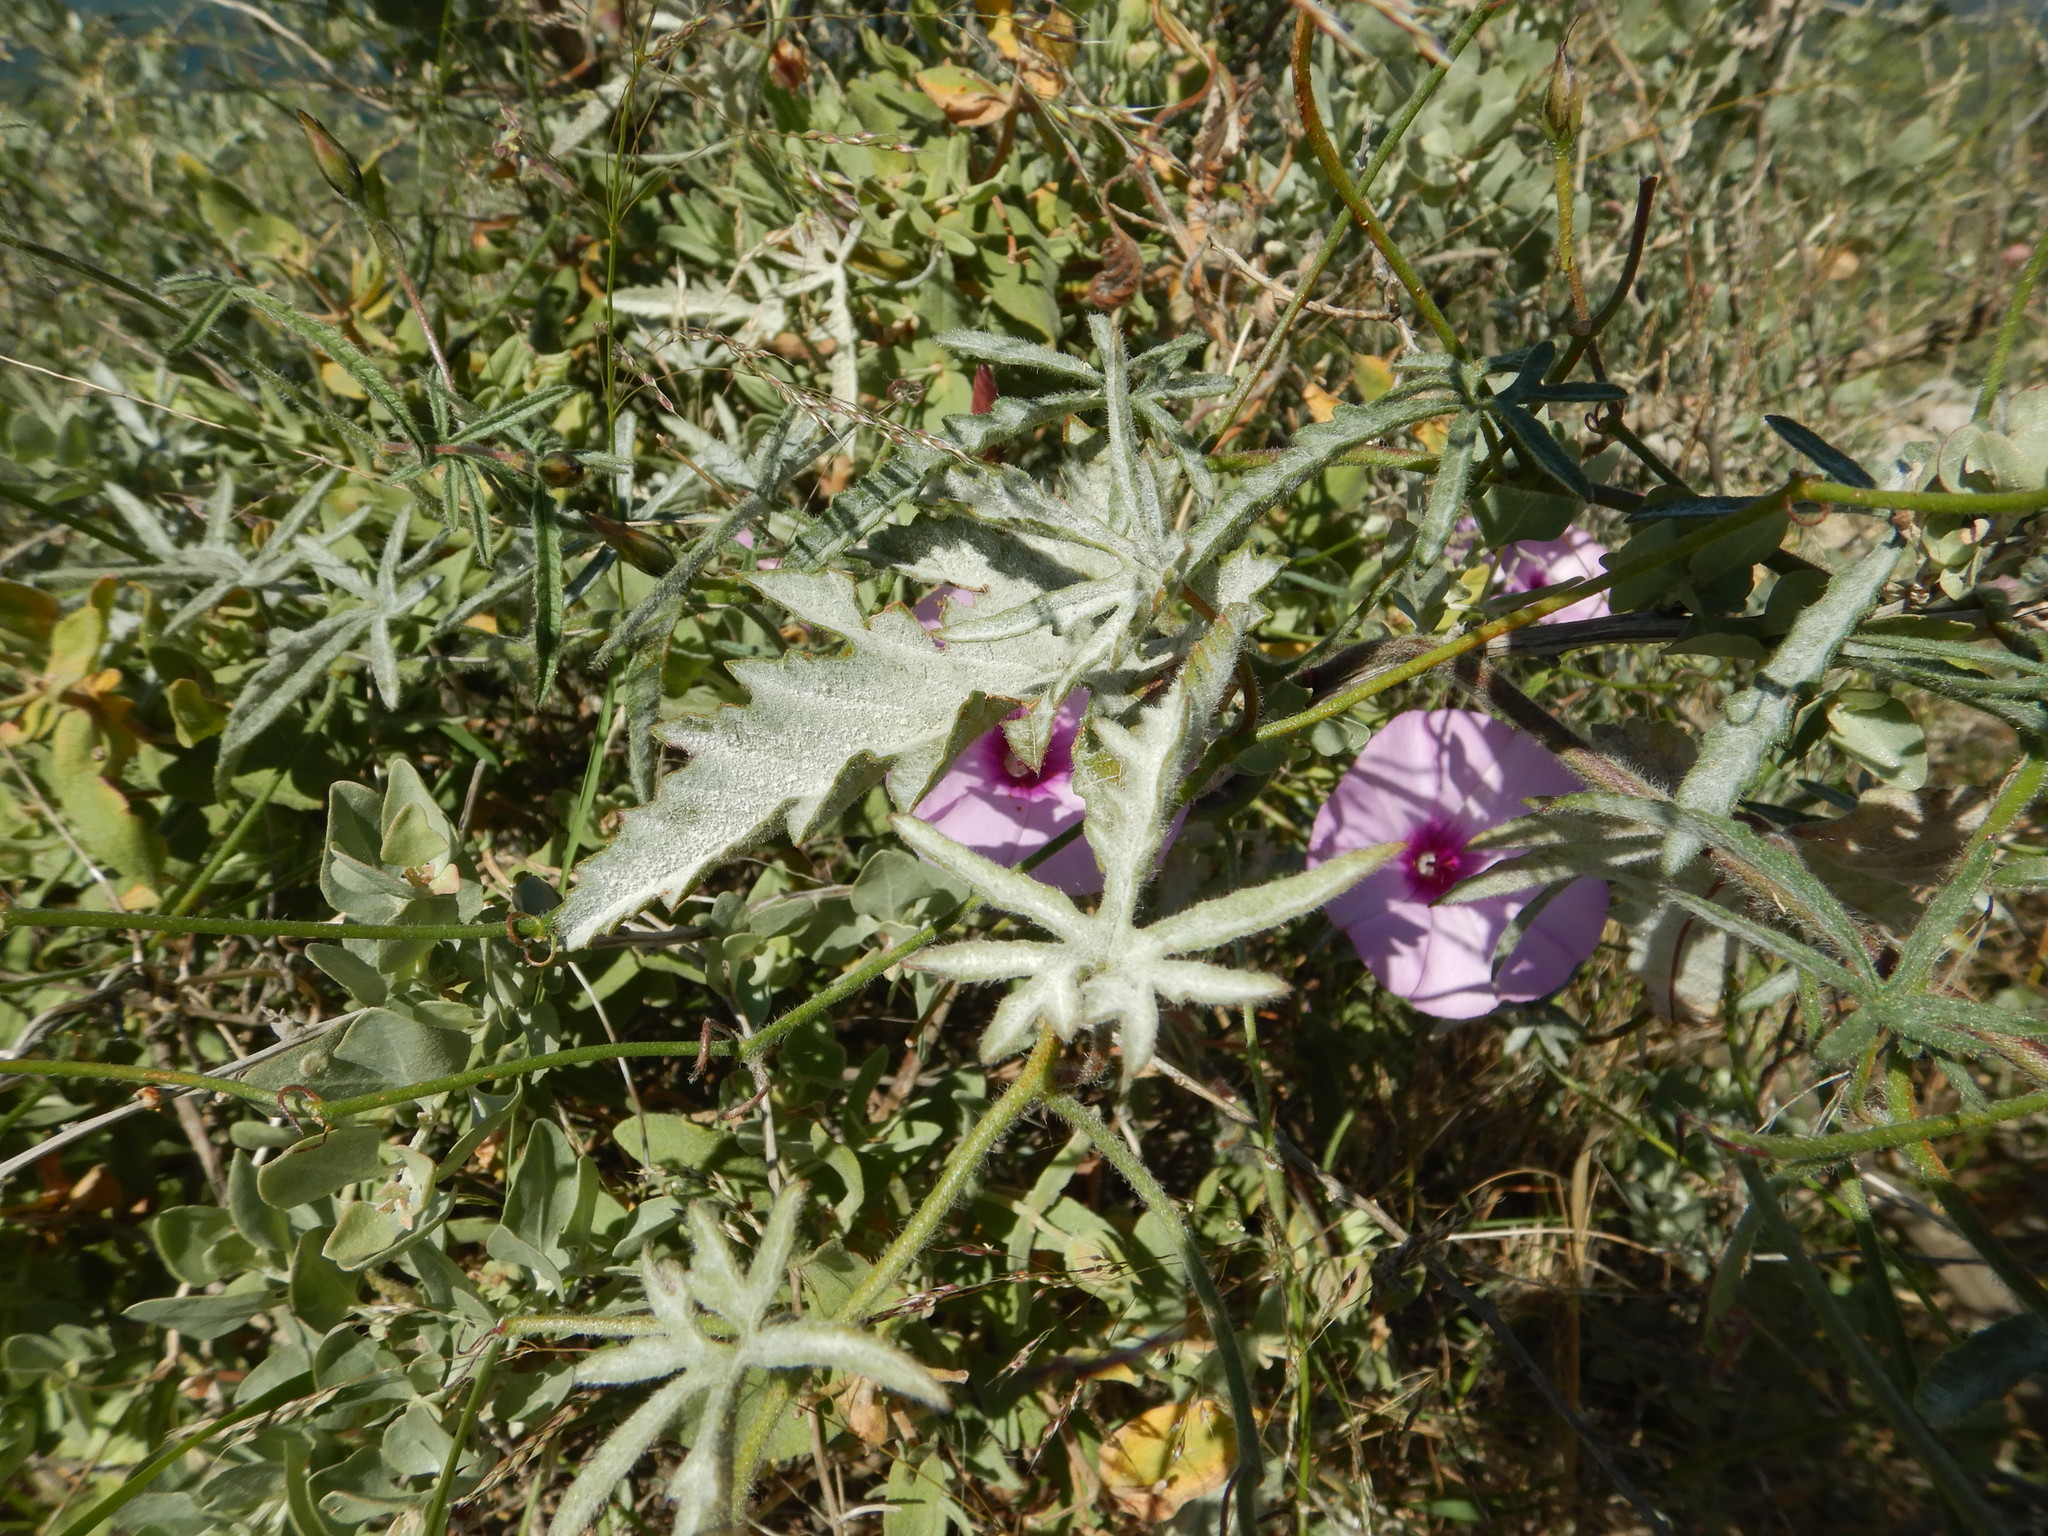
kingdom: Plantae
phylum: Tracheophyta
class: Magnoliopsida
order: Solanales
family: Convolvulaceae
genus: Convolvulus
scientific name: Convolvulus althaeoides
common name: Mallow bindweed
